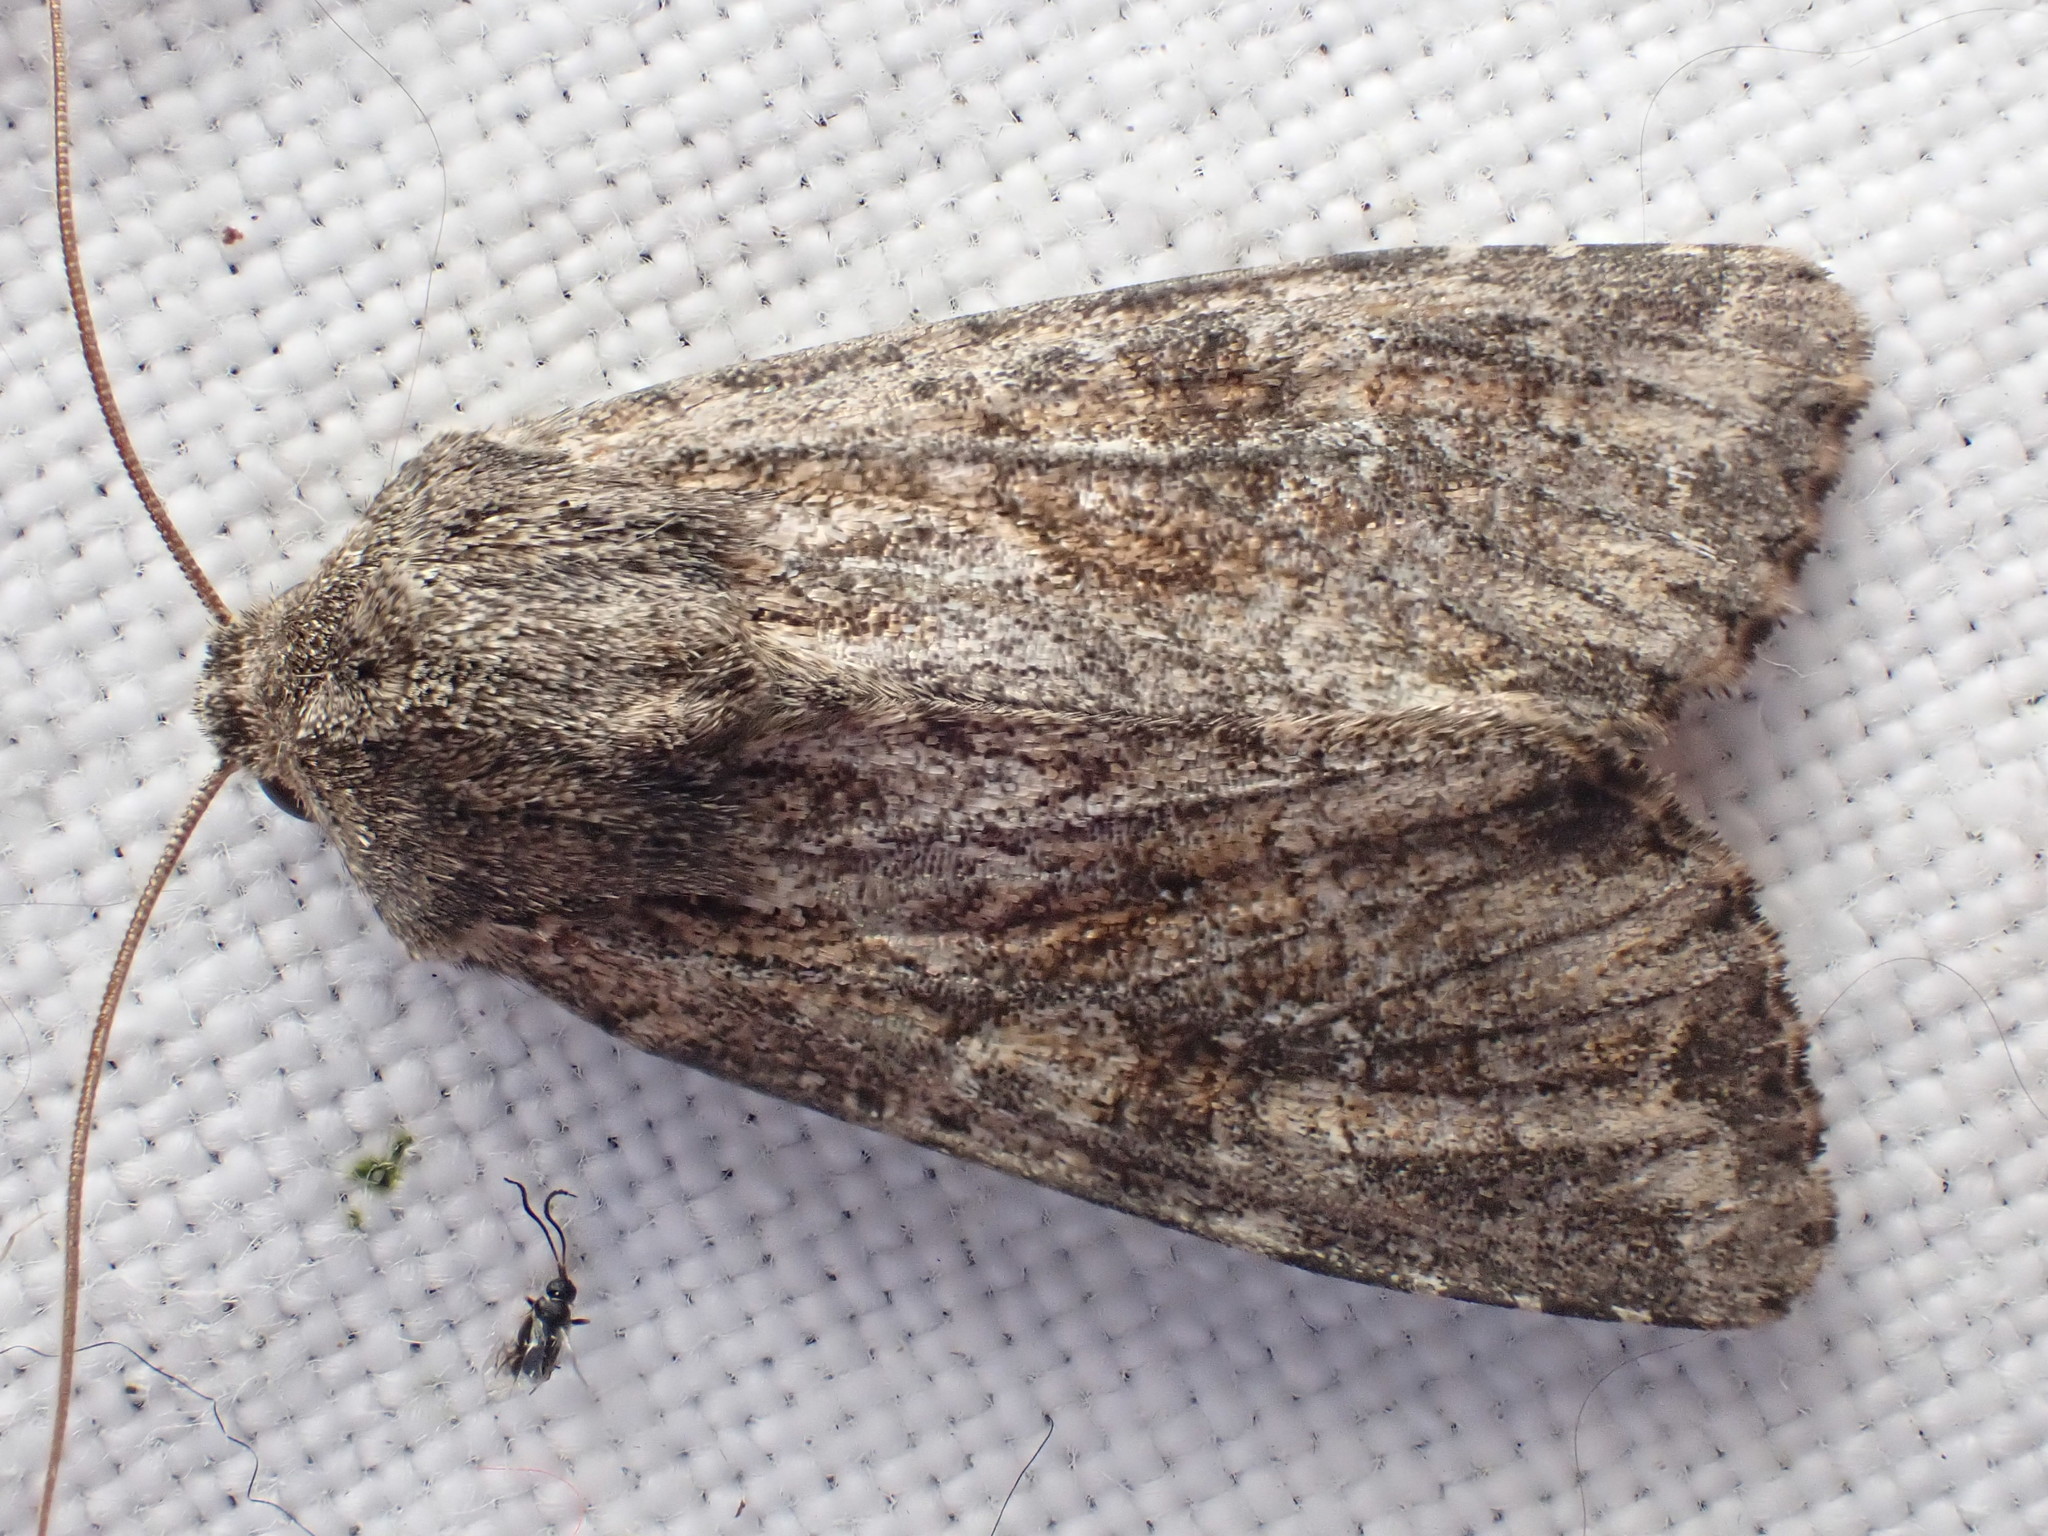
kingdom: Animalia
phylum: Arthropoda
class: Insecta
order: Lepidoptera
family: Noctuidae
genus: Apamea
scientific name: Apamea anceps
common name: Large nutmeg
